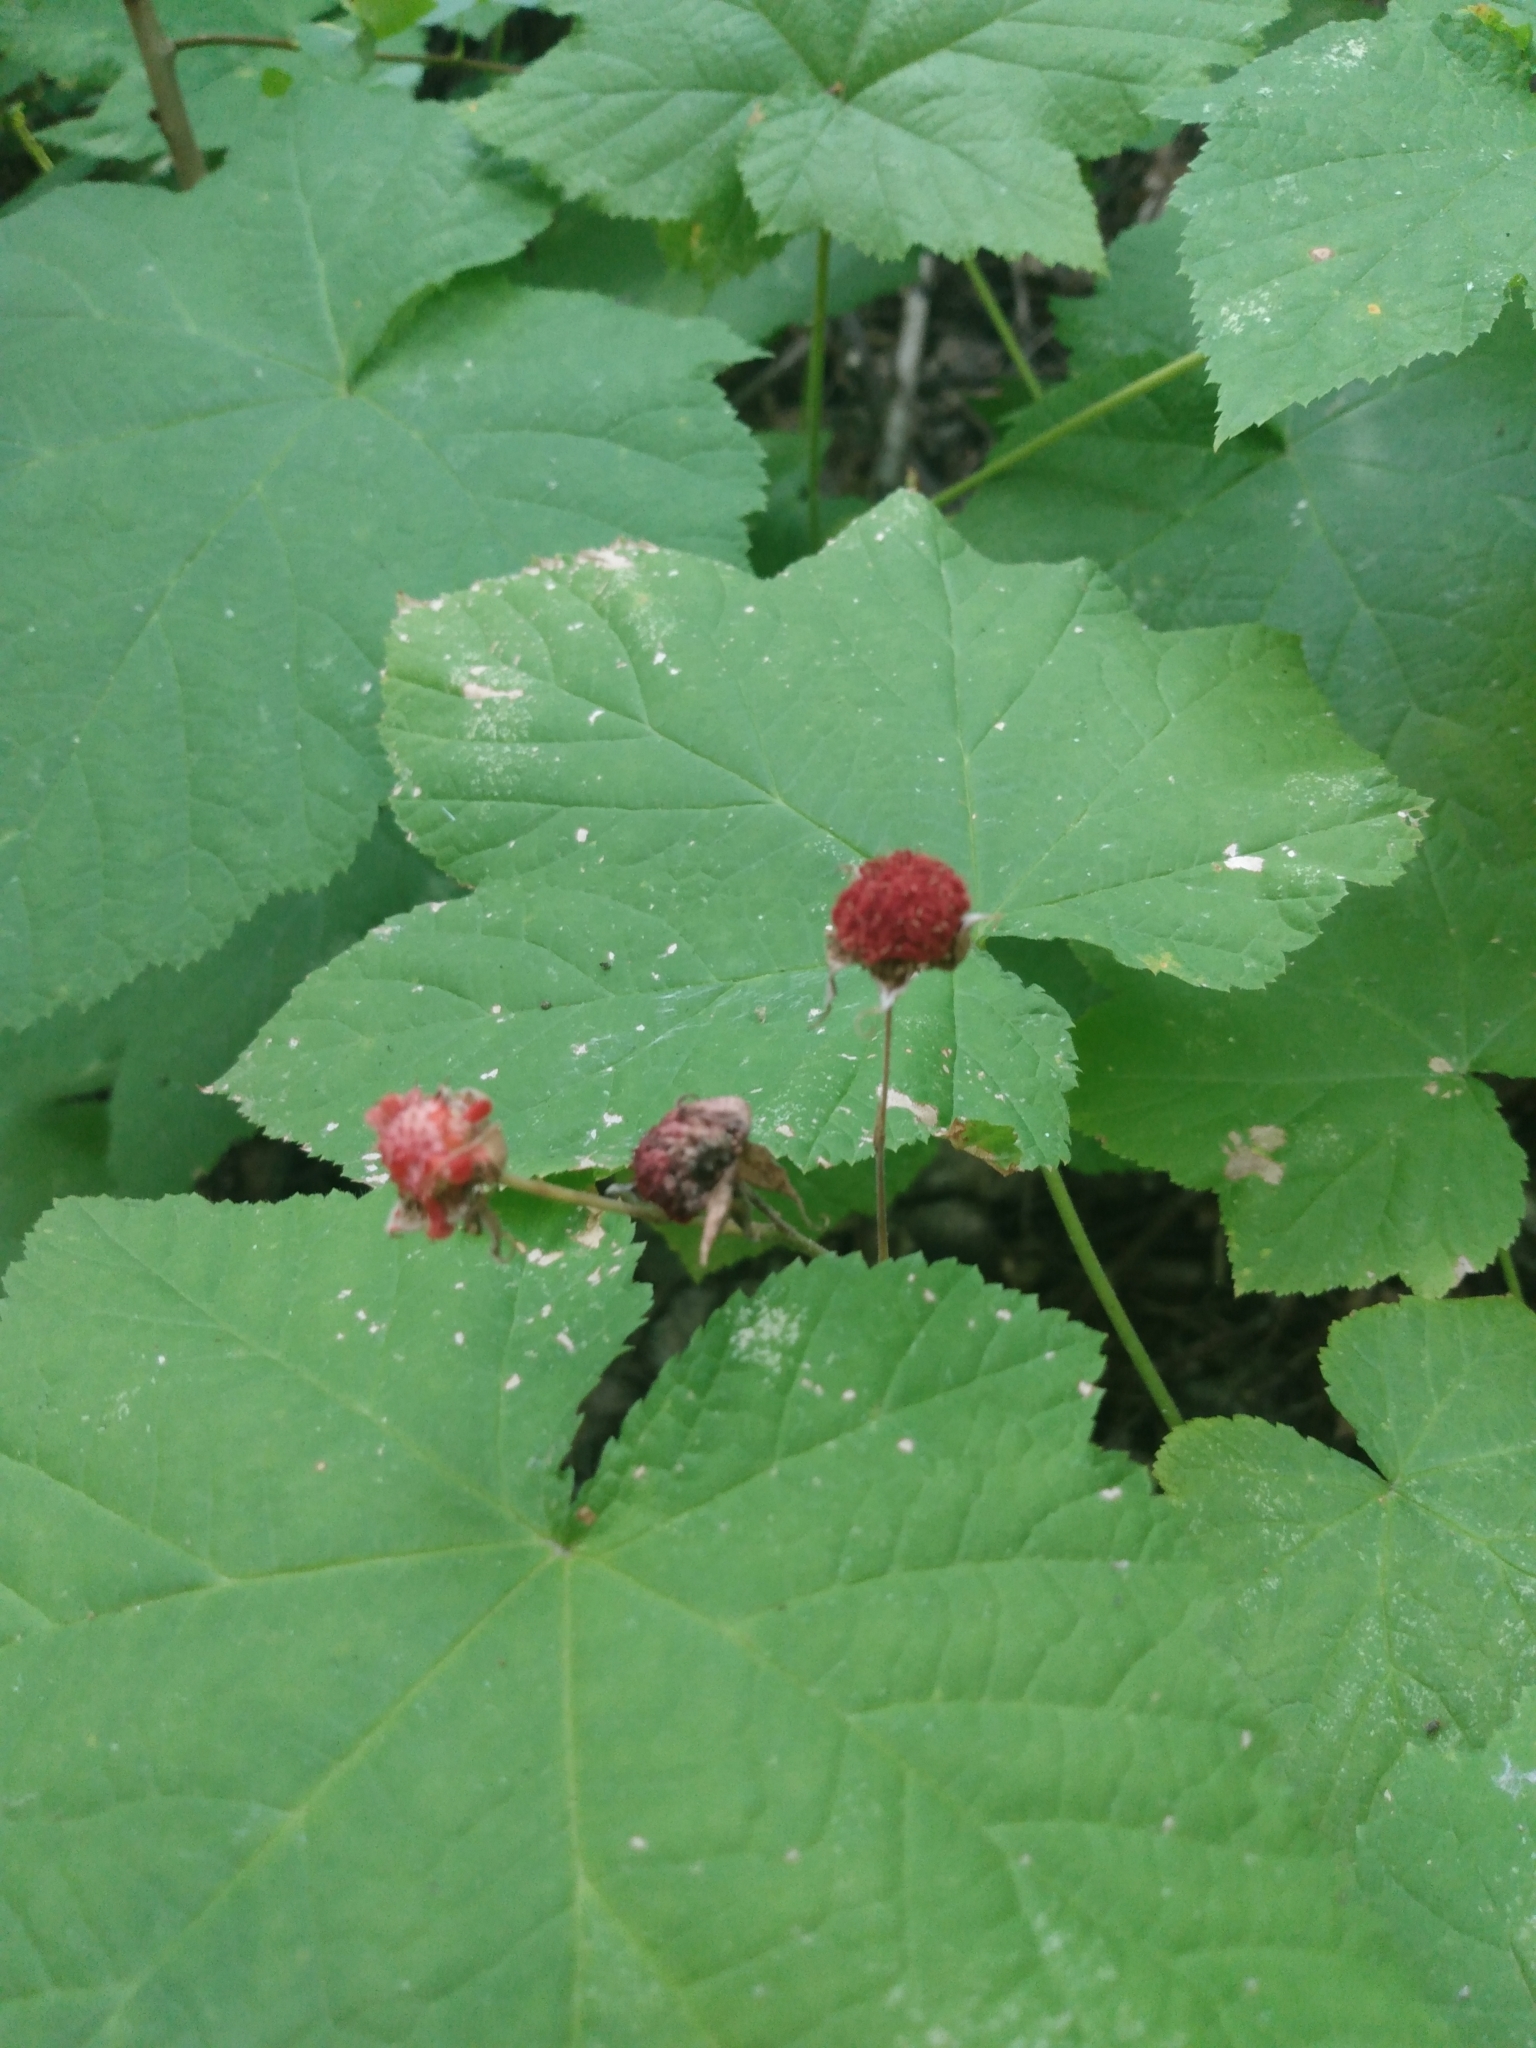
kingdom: Plantae
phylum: Tracheophyta
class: Magnoliopsida
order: Rosales
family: Rosaceae
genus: Rubus
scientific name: Rubus parviflorus
